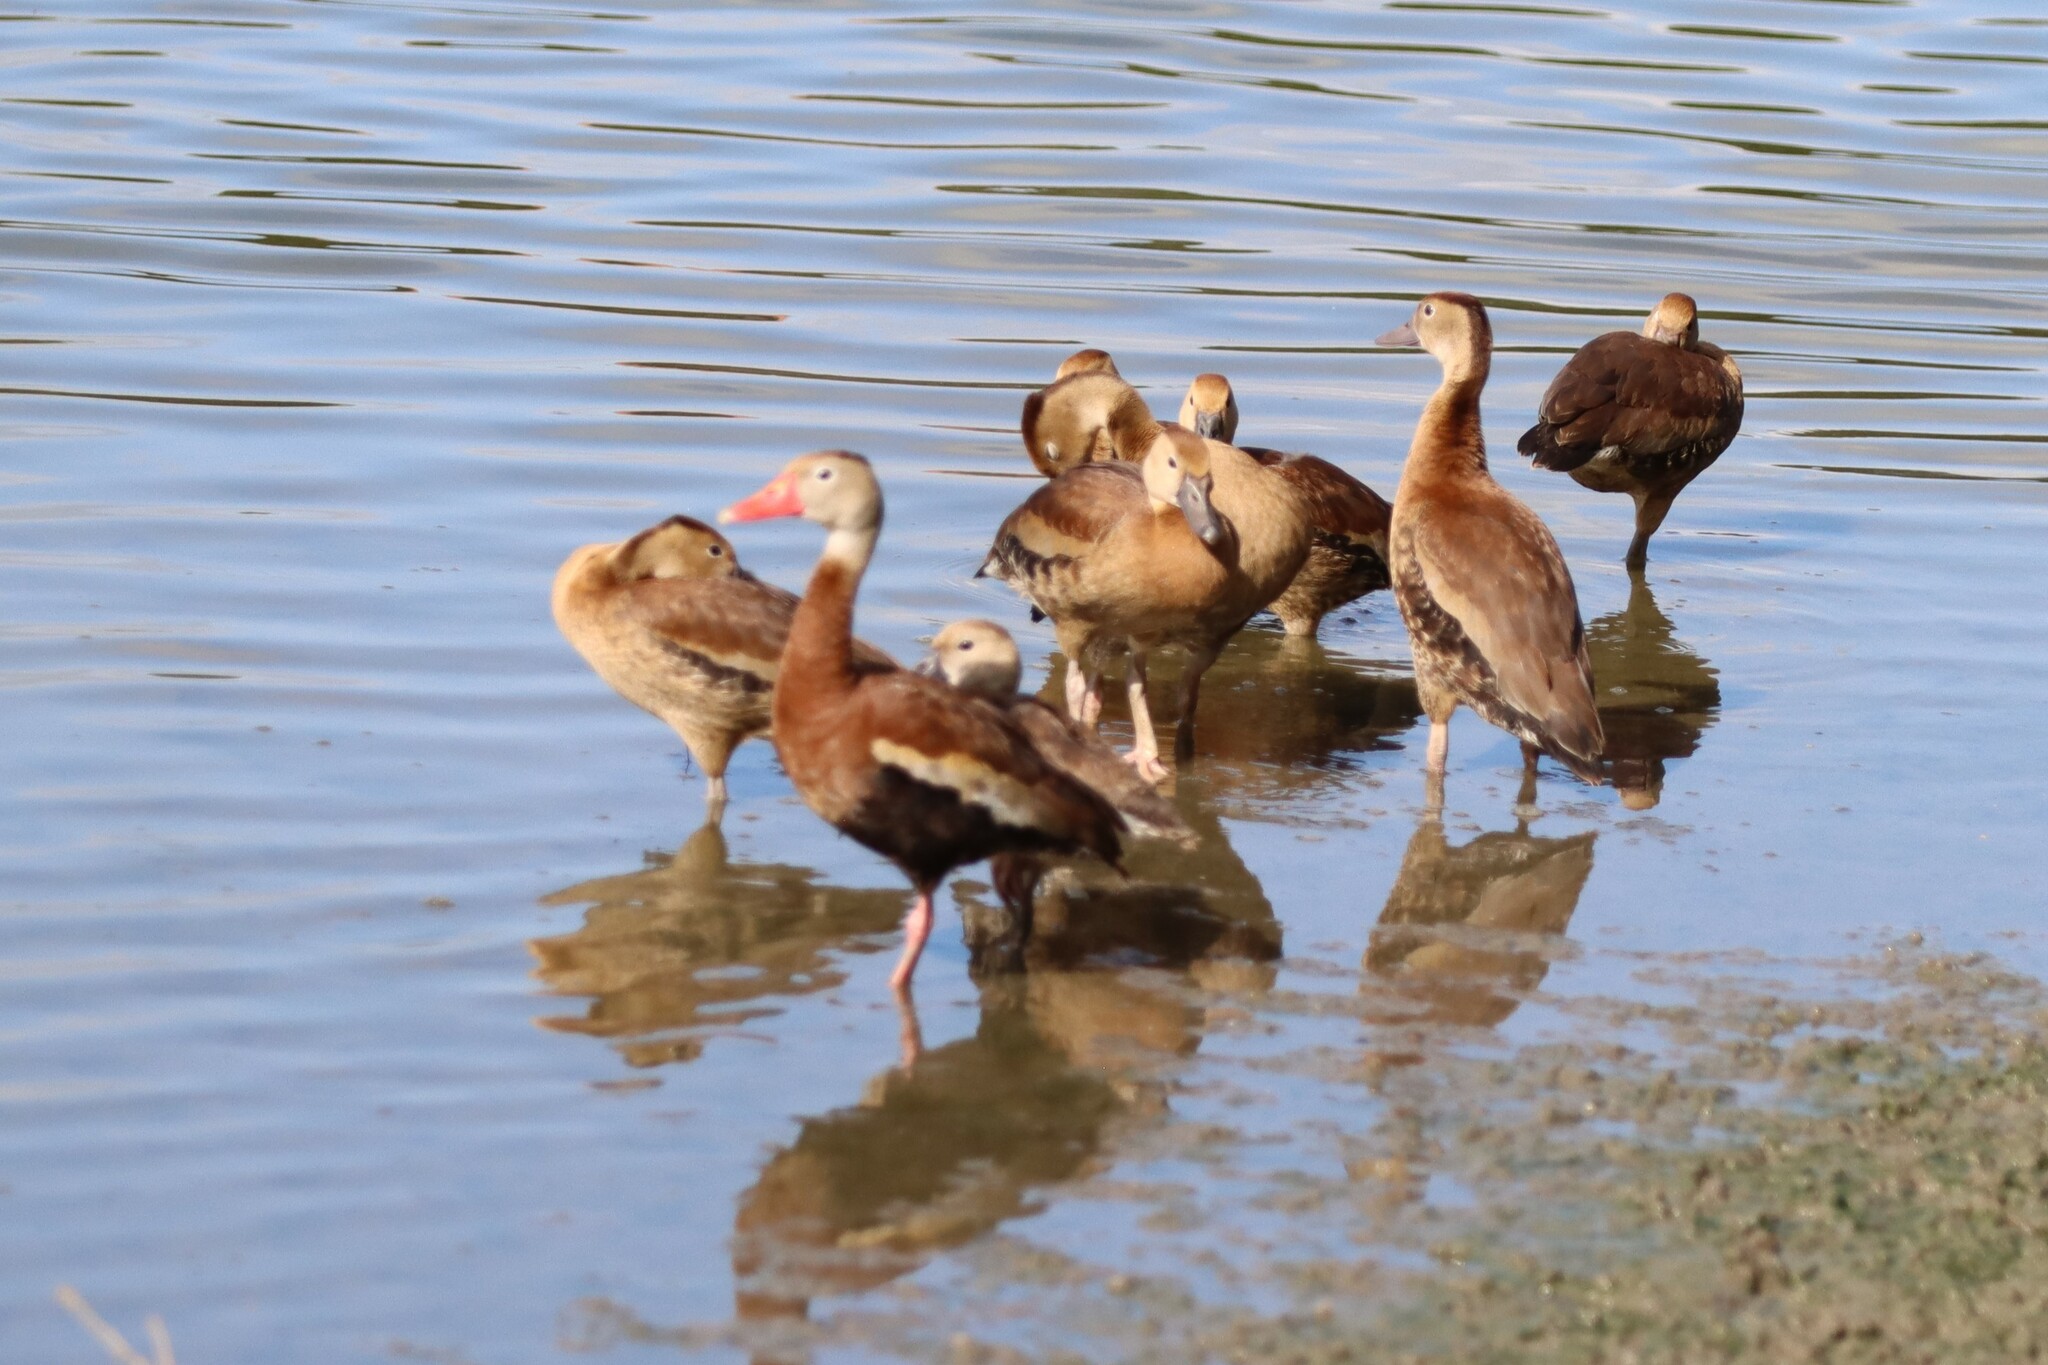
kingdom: Animalia
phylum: Chordata
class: Aves
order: Anseriformes
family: Anatidae
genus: Dendrocygna
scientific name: Dendrocygna autumnalis
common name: Black-bellied whistling duck
